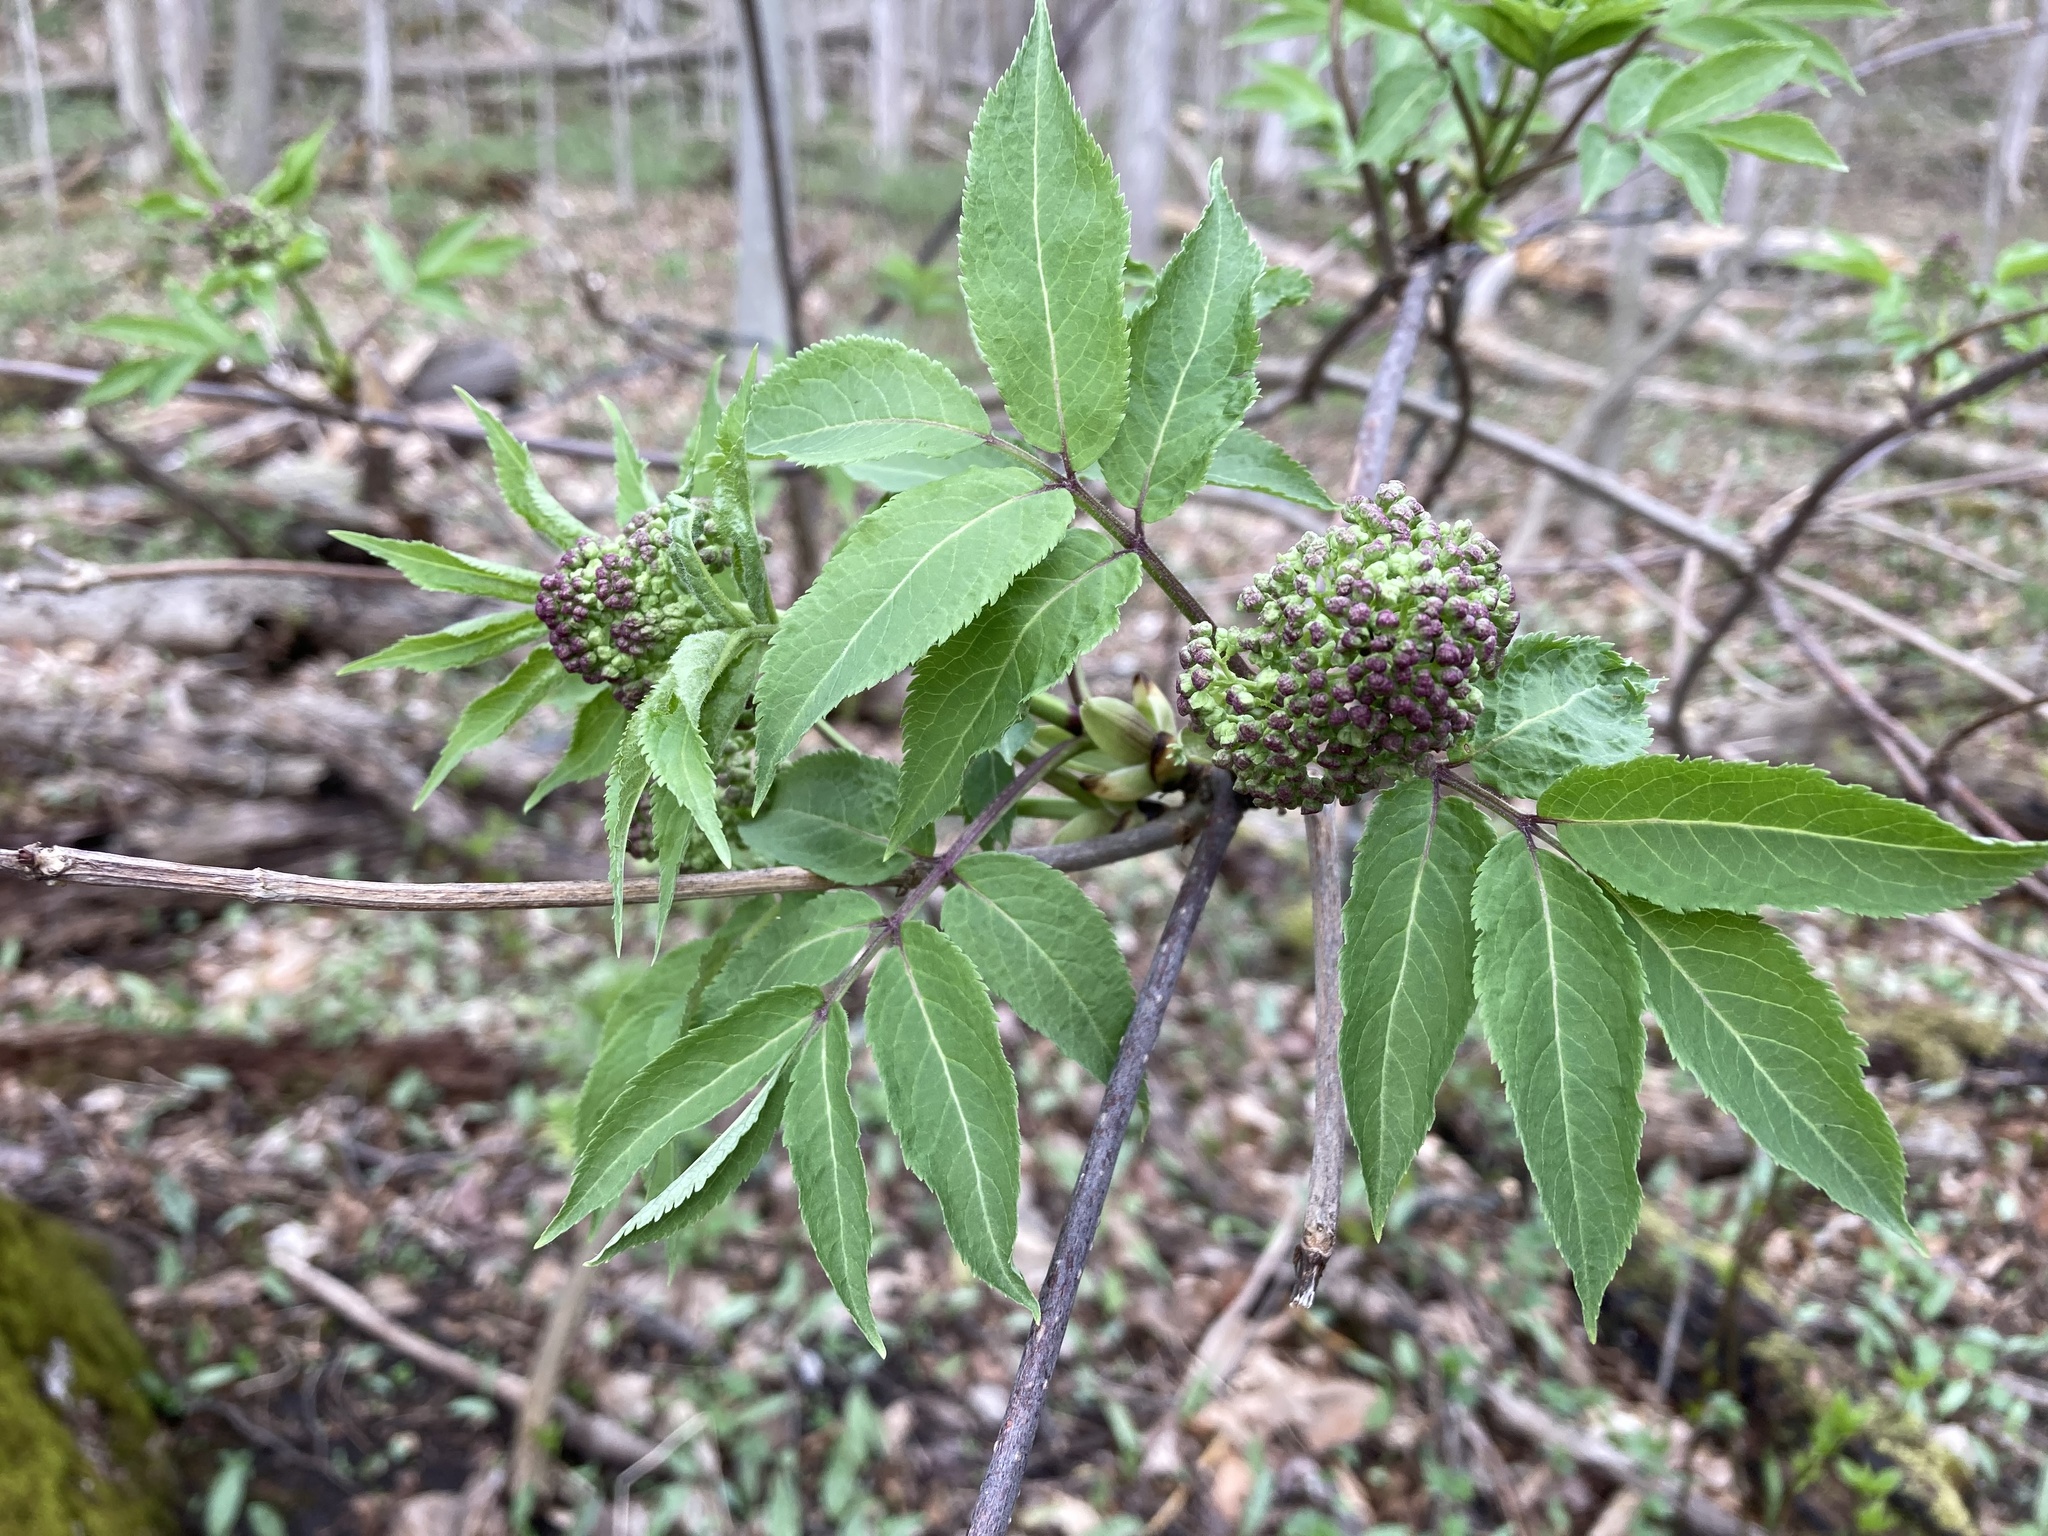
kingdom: Plantae
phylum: Tracheophyta
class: Magnoliopsida
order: Dipsacales
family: Viburnaceae
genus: Sambucus
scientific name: Sambucus racemosa
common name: Red-berried elder
